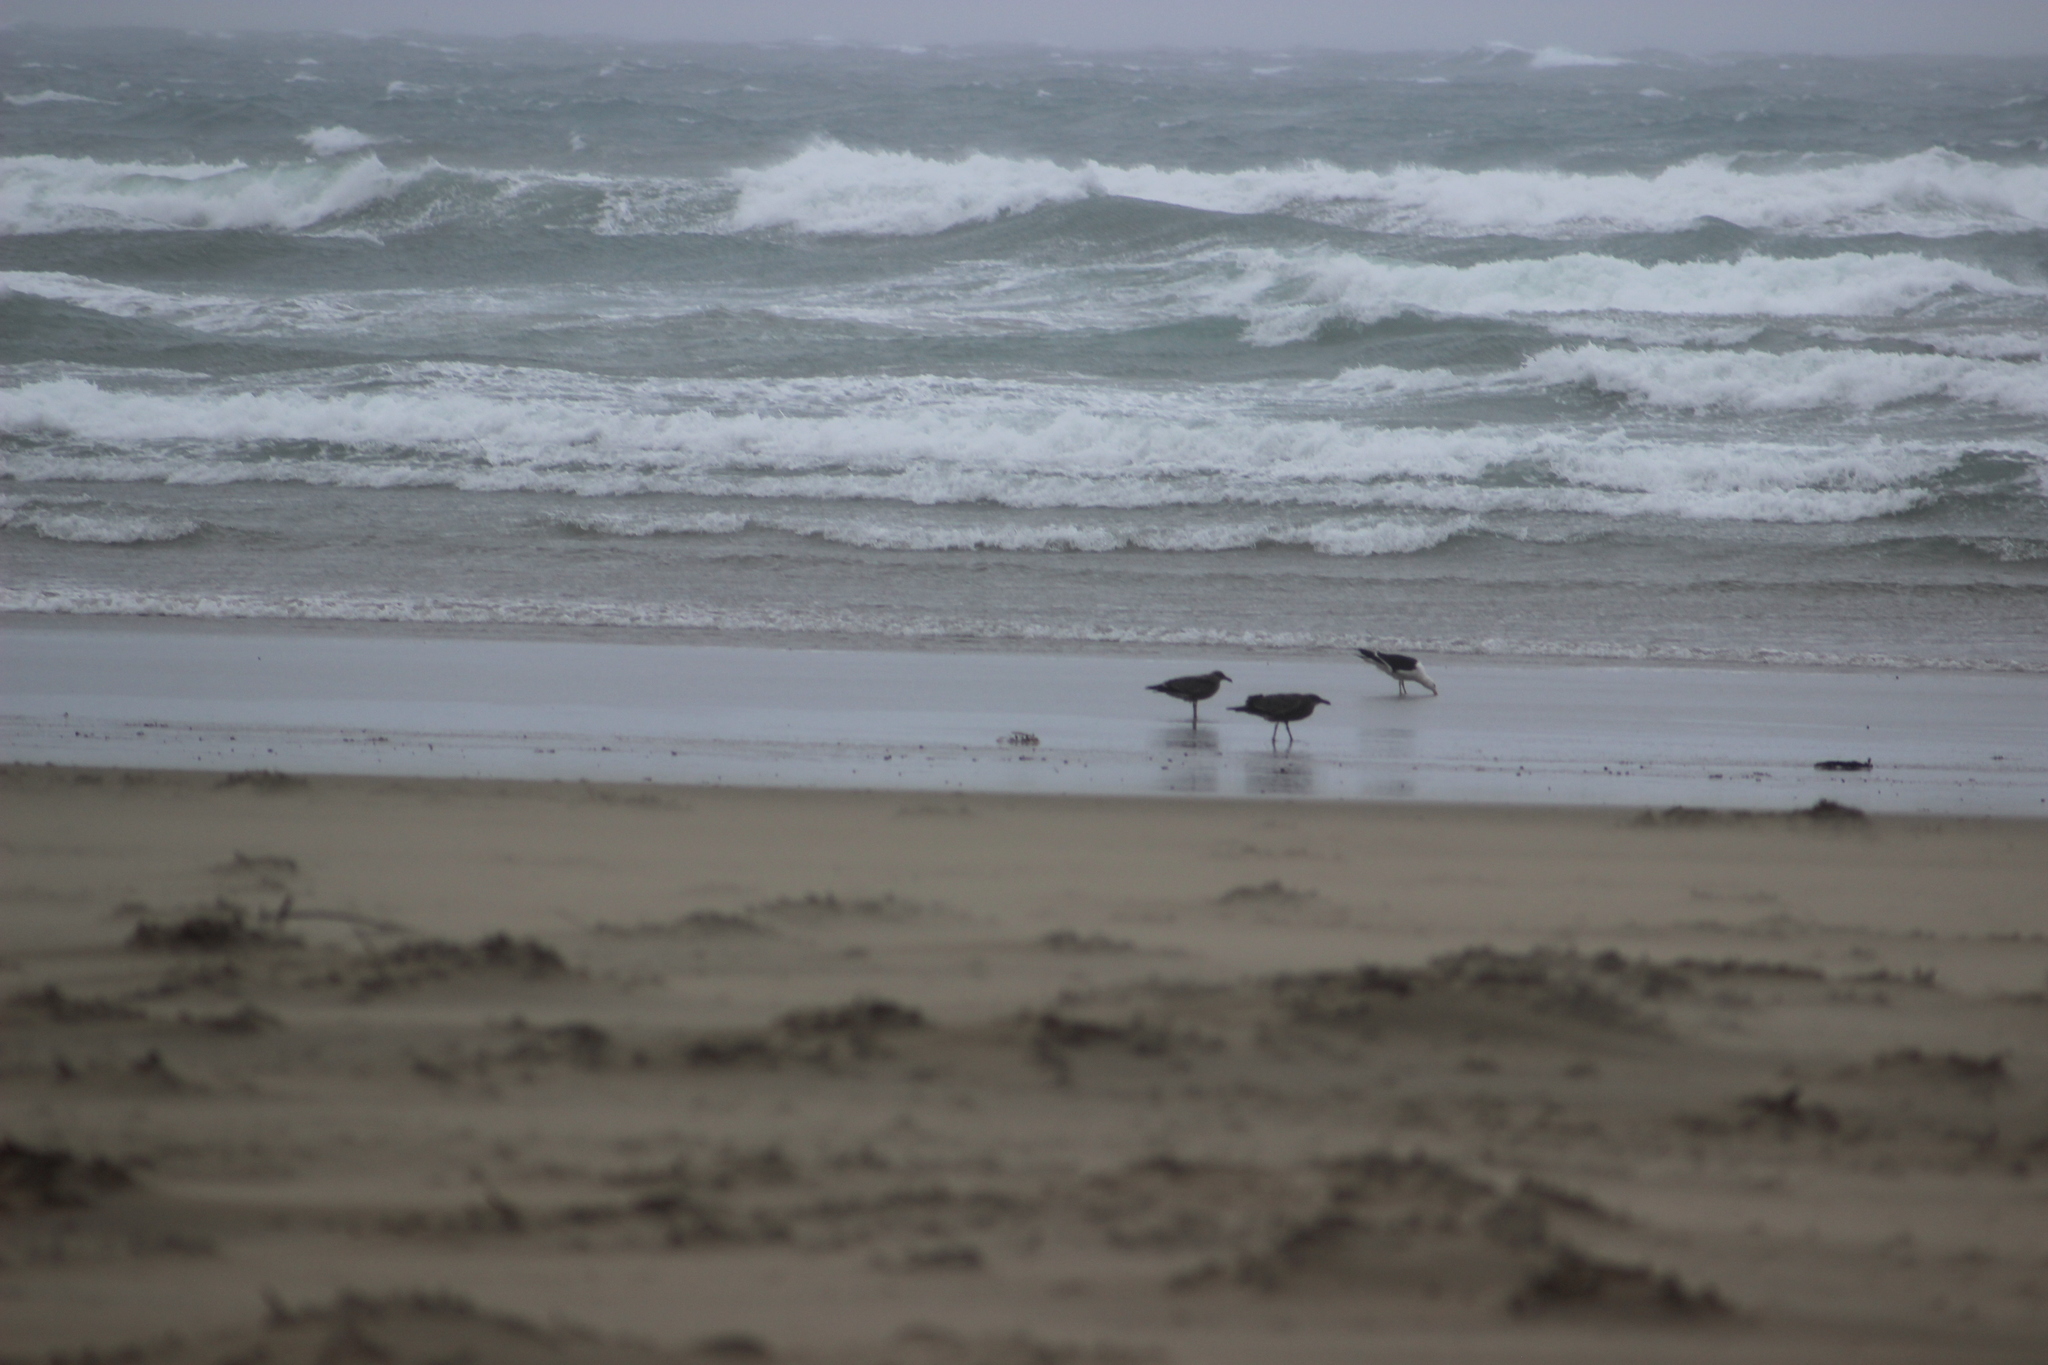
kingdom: Animalia
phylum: Chordata
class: Aves
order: Charadriiformes
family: Laridae
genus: Larus
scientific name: Larus dominicanus
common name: Kelp gull
